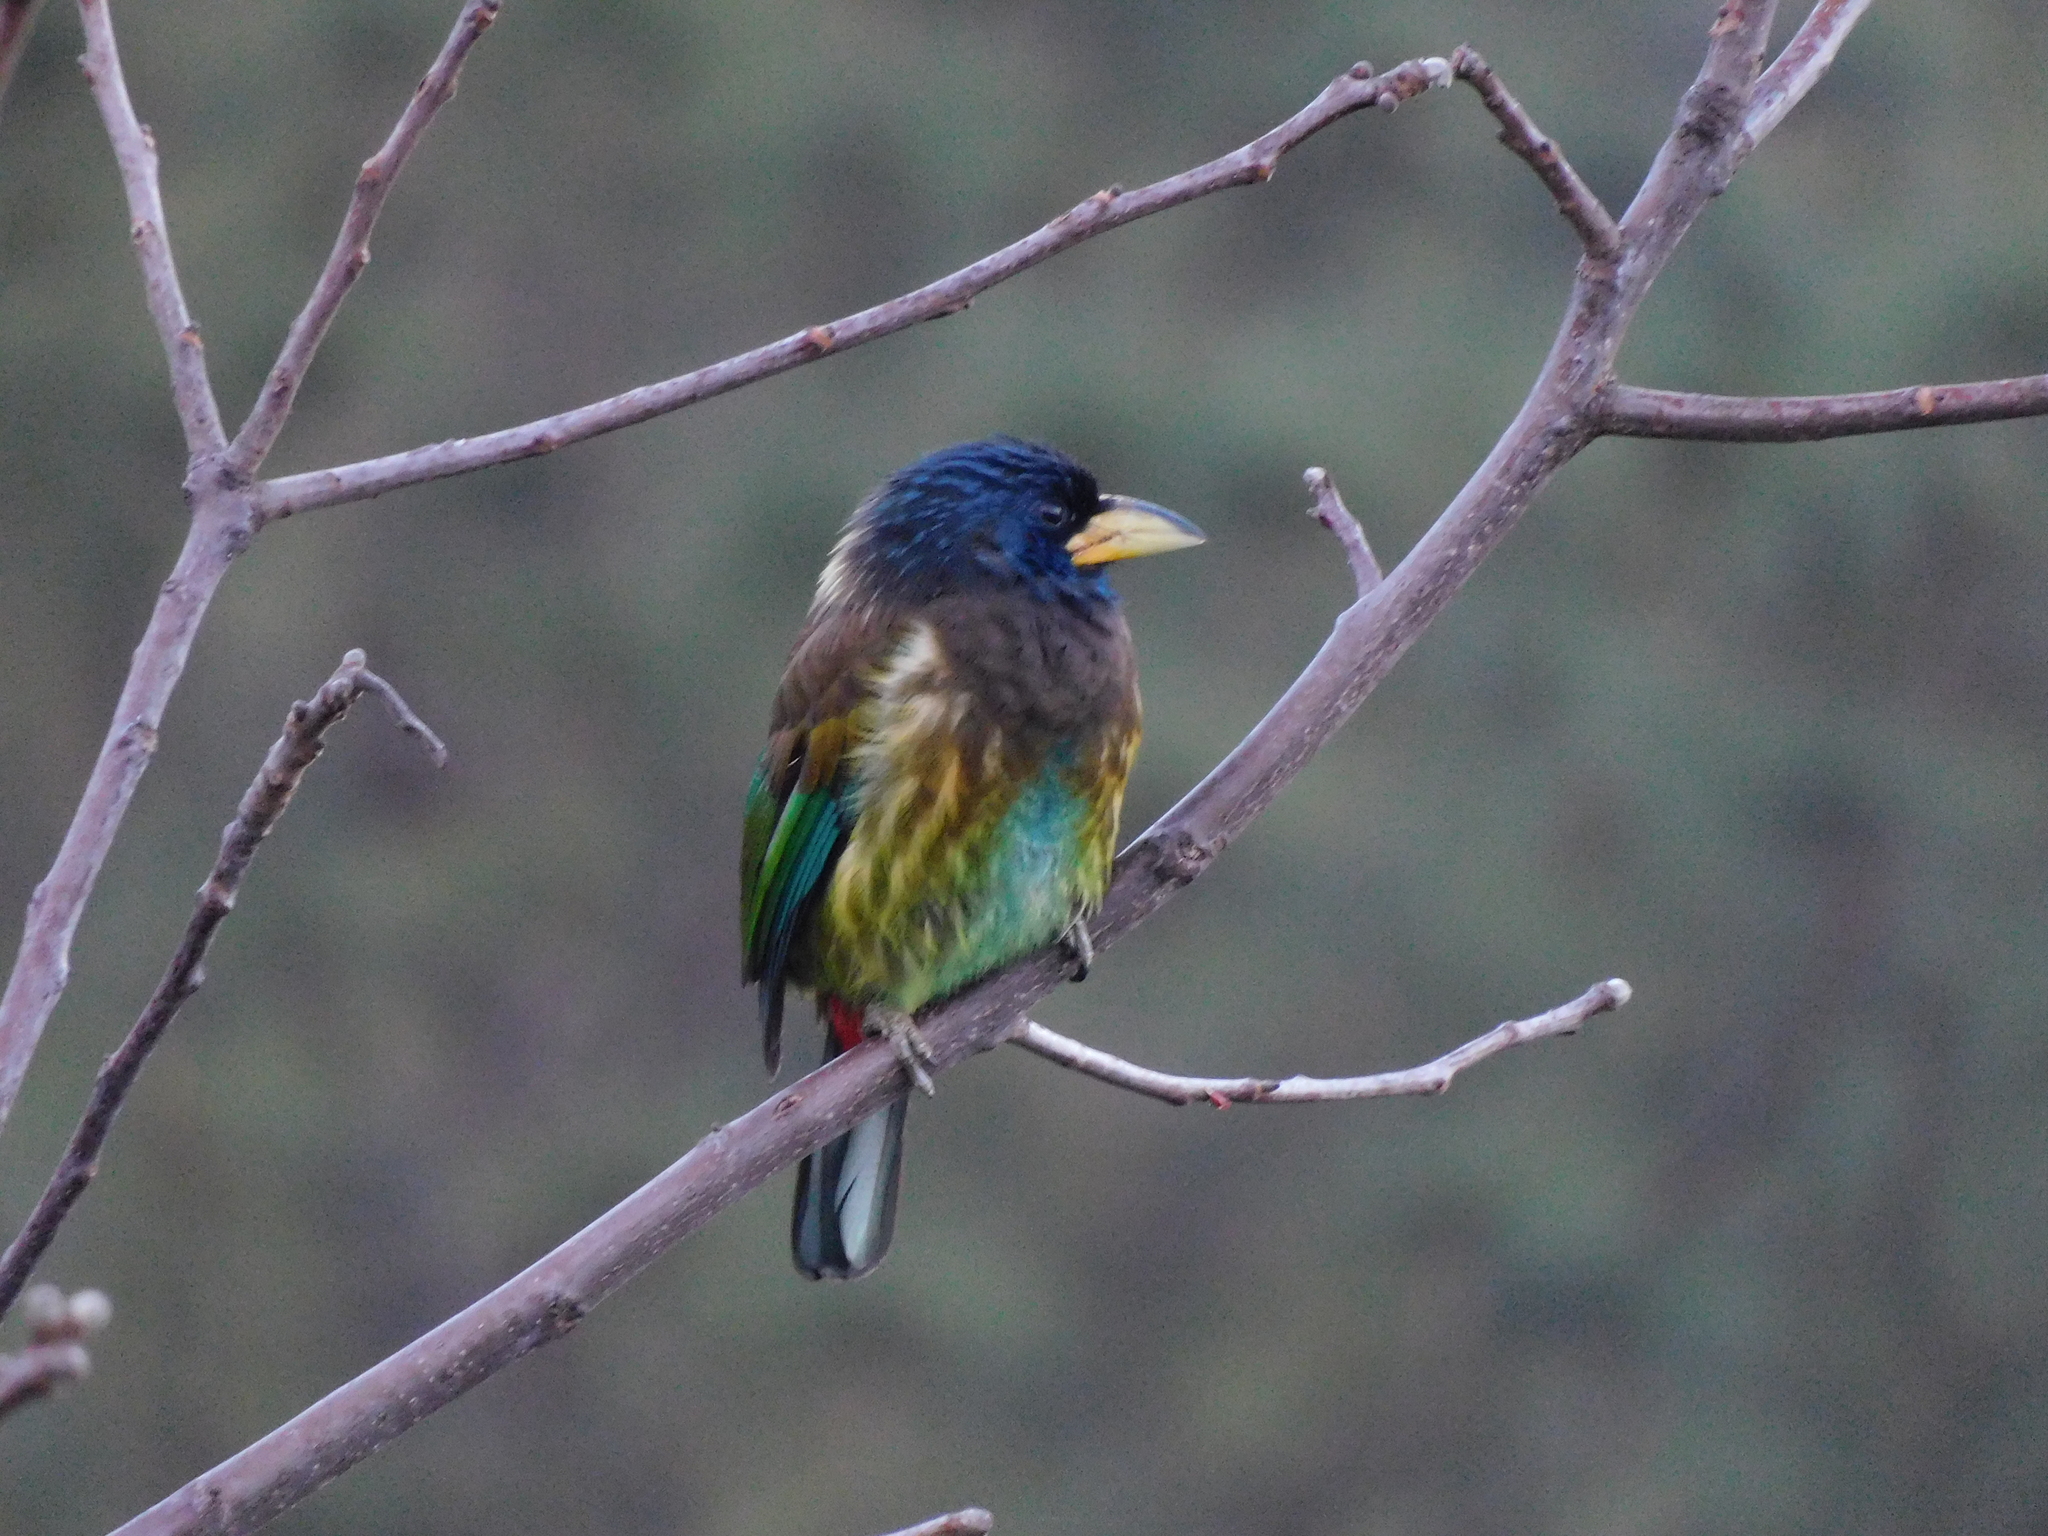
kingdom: Animalia
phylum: Chordata
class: Aves
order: Piciformes
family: Megalaimidae
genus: Psilopogon
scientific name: Psilopogon virens
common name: Great barbet
